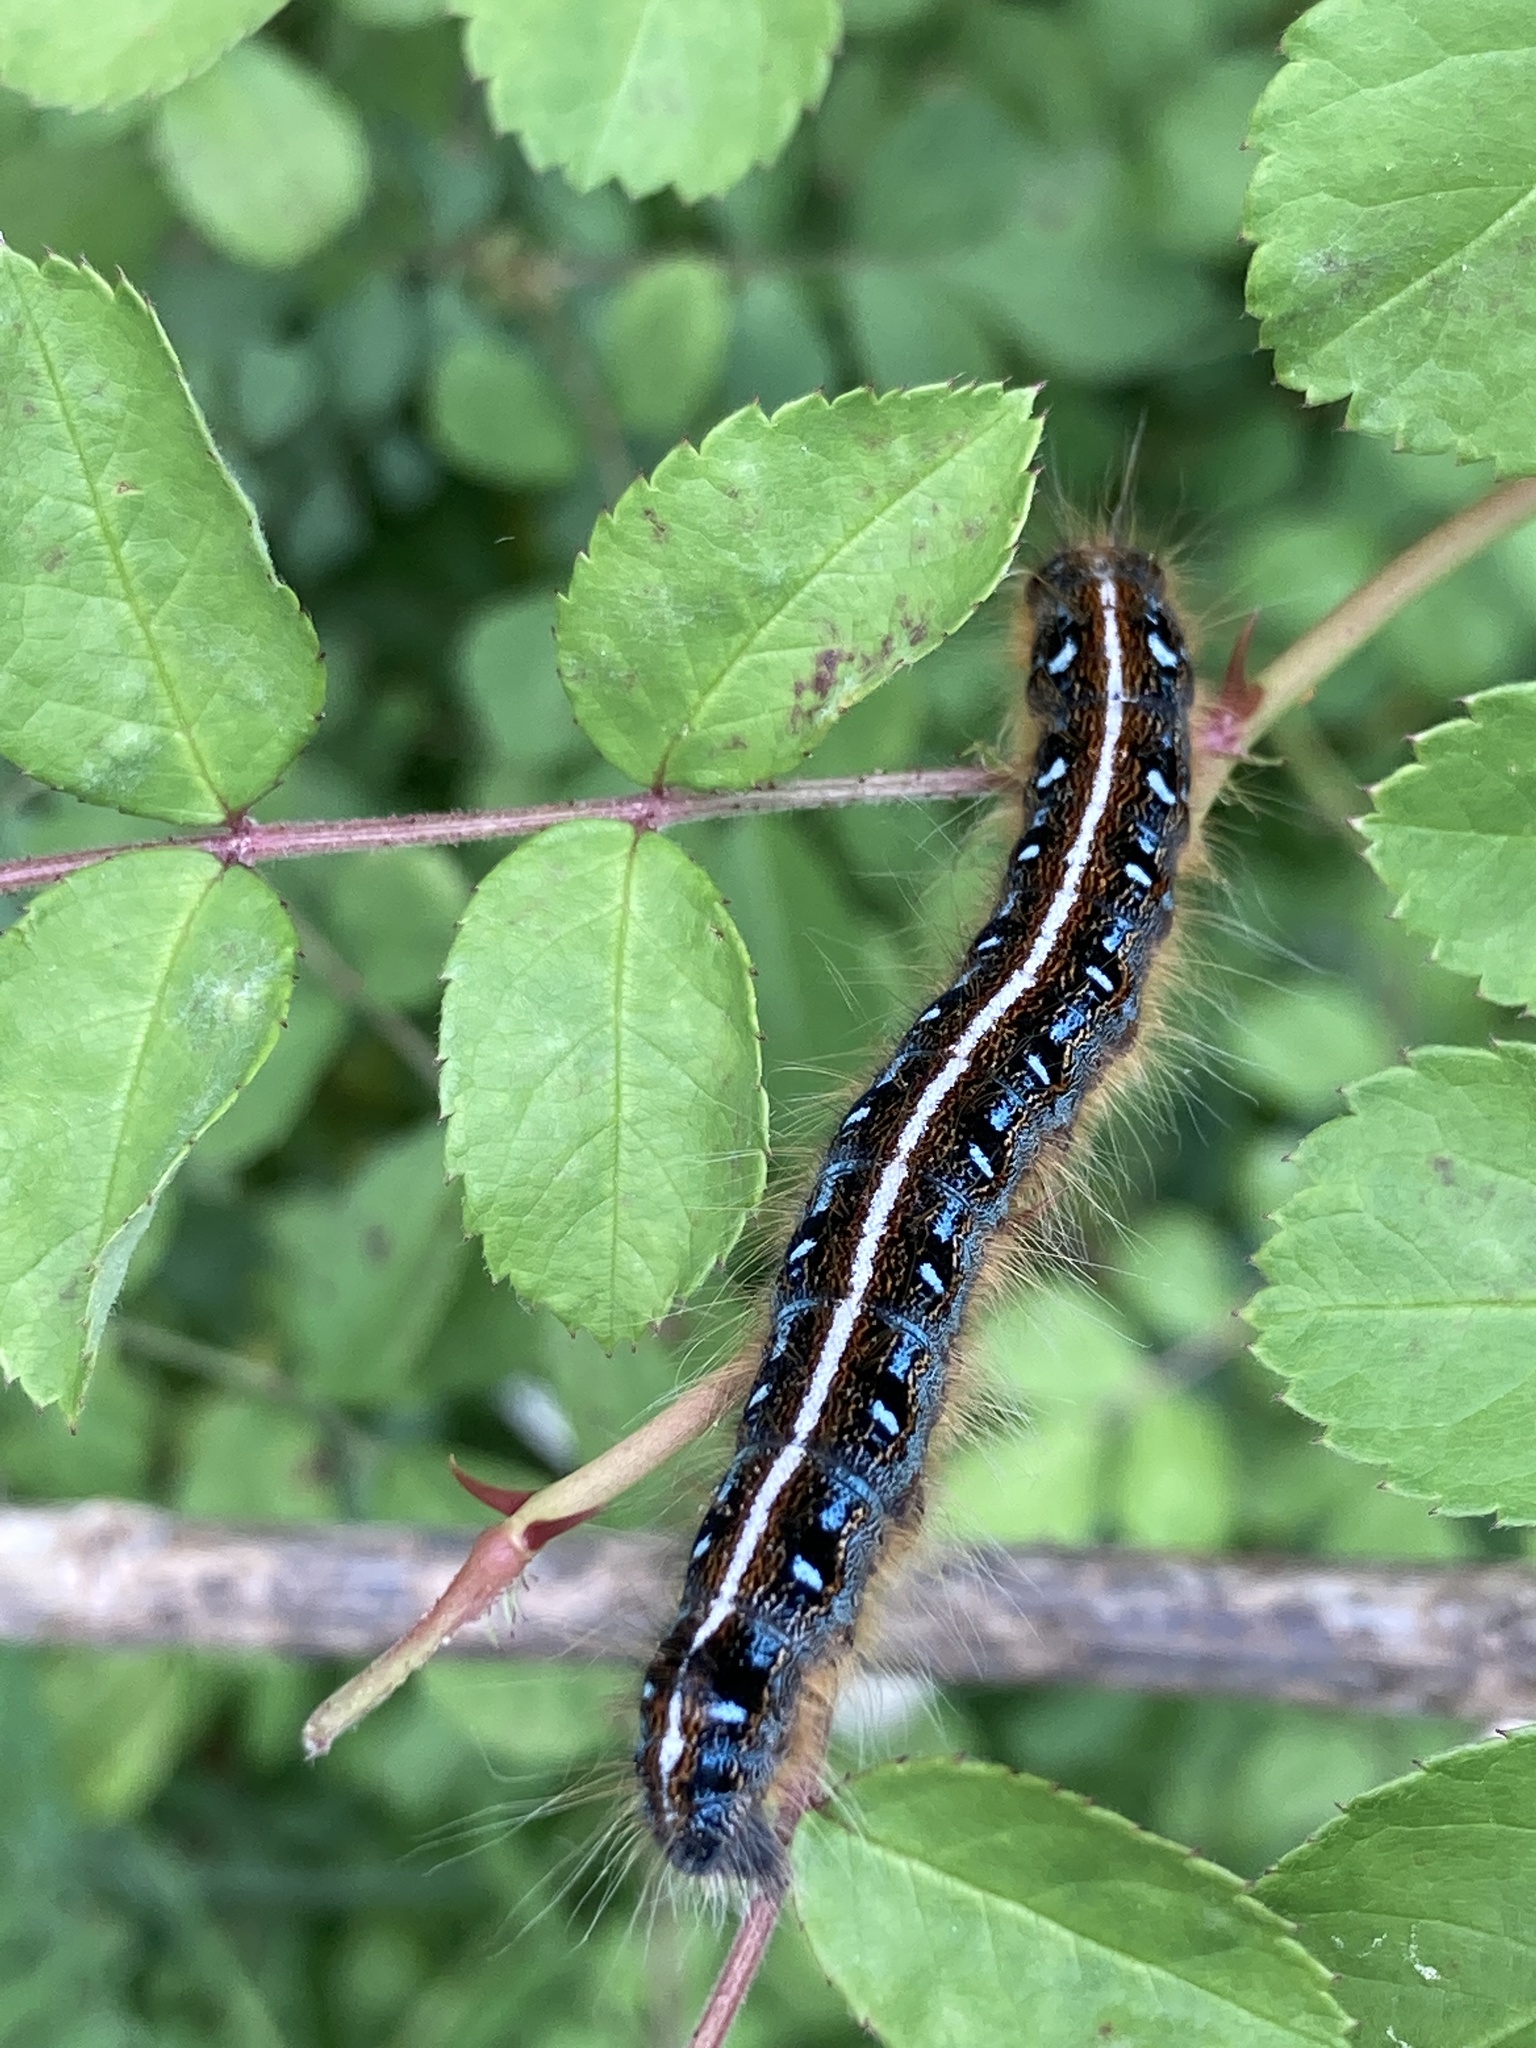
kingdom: Animalia
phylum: Arthropoda
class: Insecta
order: Lepidoptera
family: Lasiocampidae
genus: Malacosoma
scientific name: Malacosoma americana
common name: Eastern tent caterpillar moth
